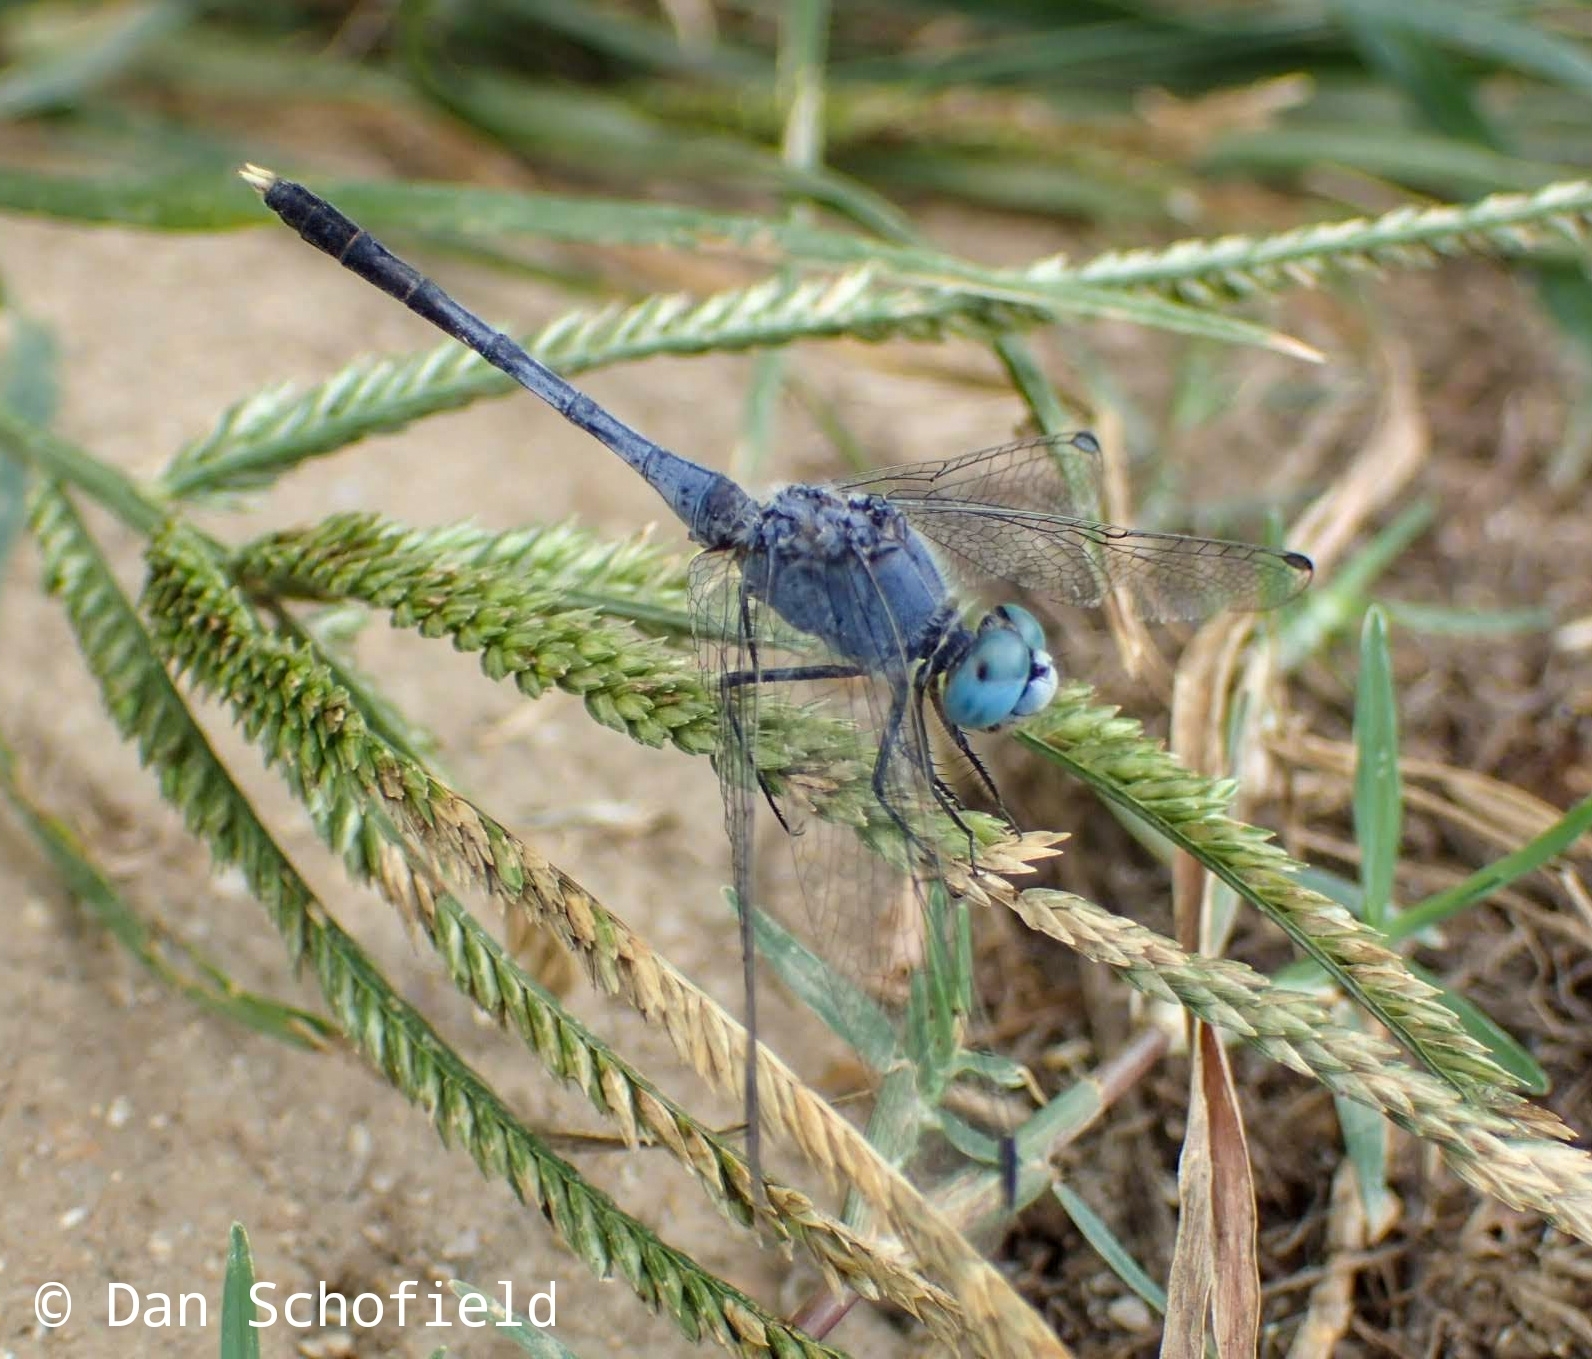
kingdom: Animalia
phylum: Arthropoda
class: Insecta
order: Odonata
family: Libellulidae
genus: Diplacodes
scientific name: Diplacodes trivialis
